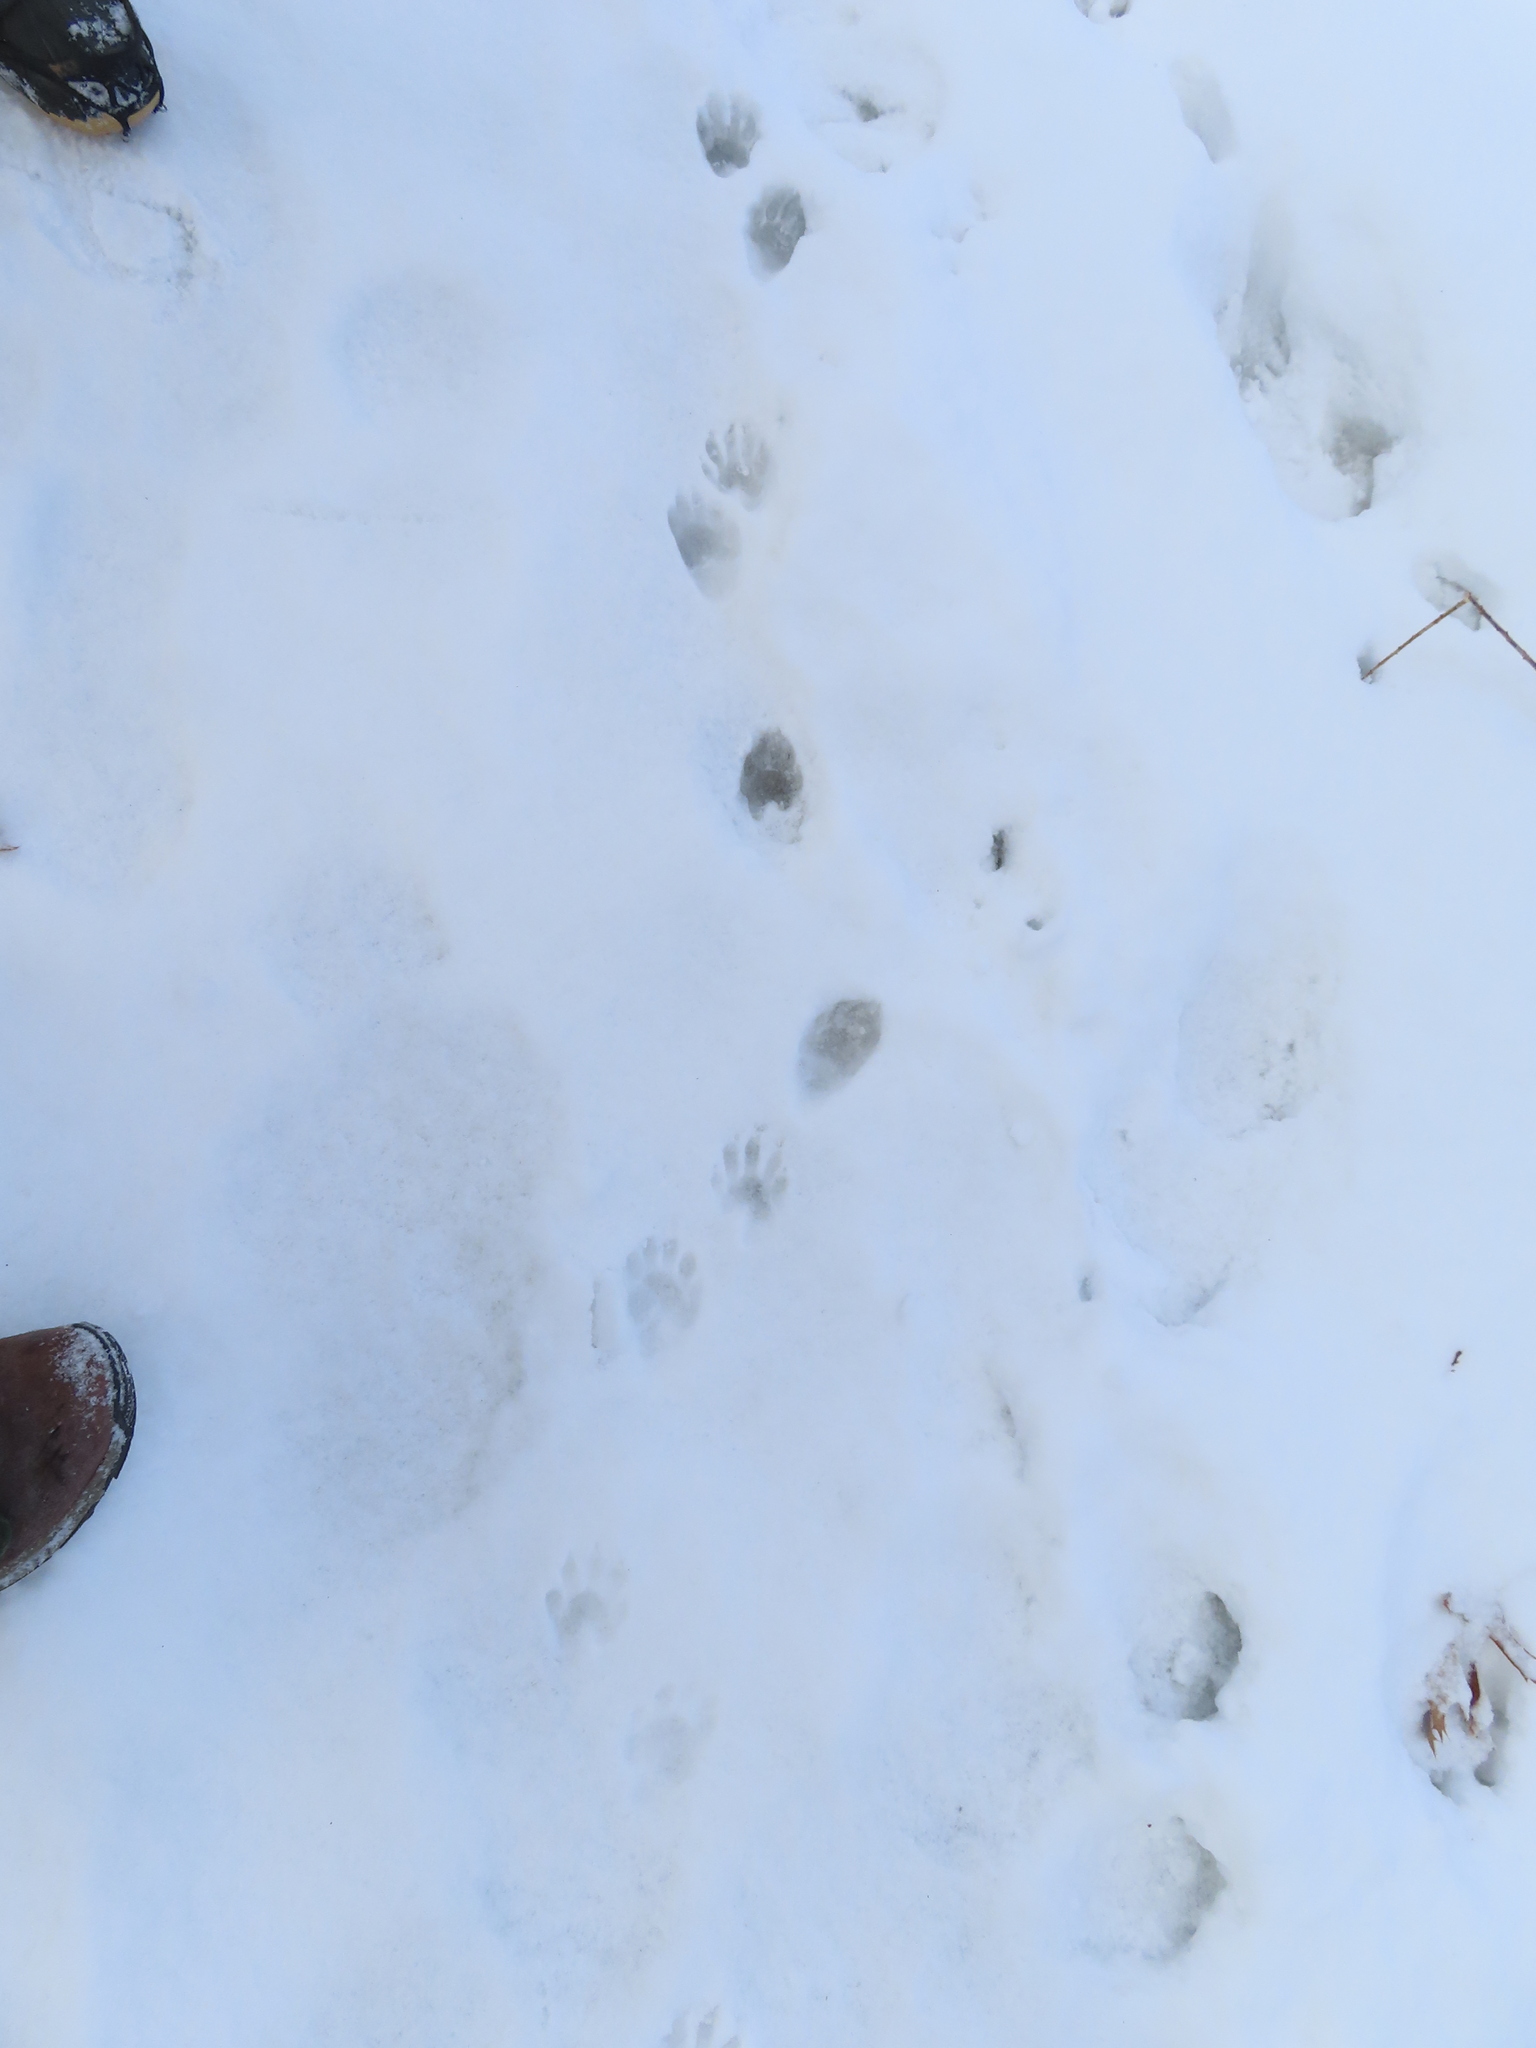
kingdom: Animalia
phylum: Chordata
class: Mammalia
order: Carnivora
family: Procyonidae
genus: Procyon
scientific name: Procyon lotor
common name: Raccoon
